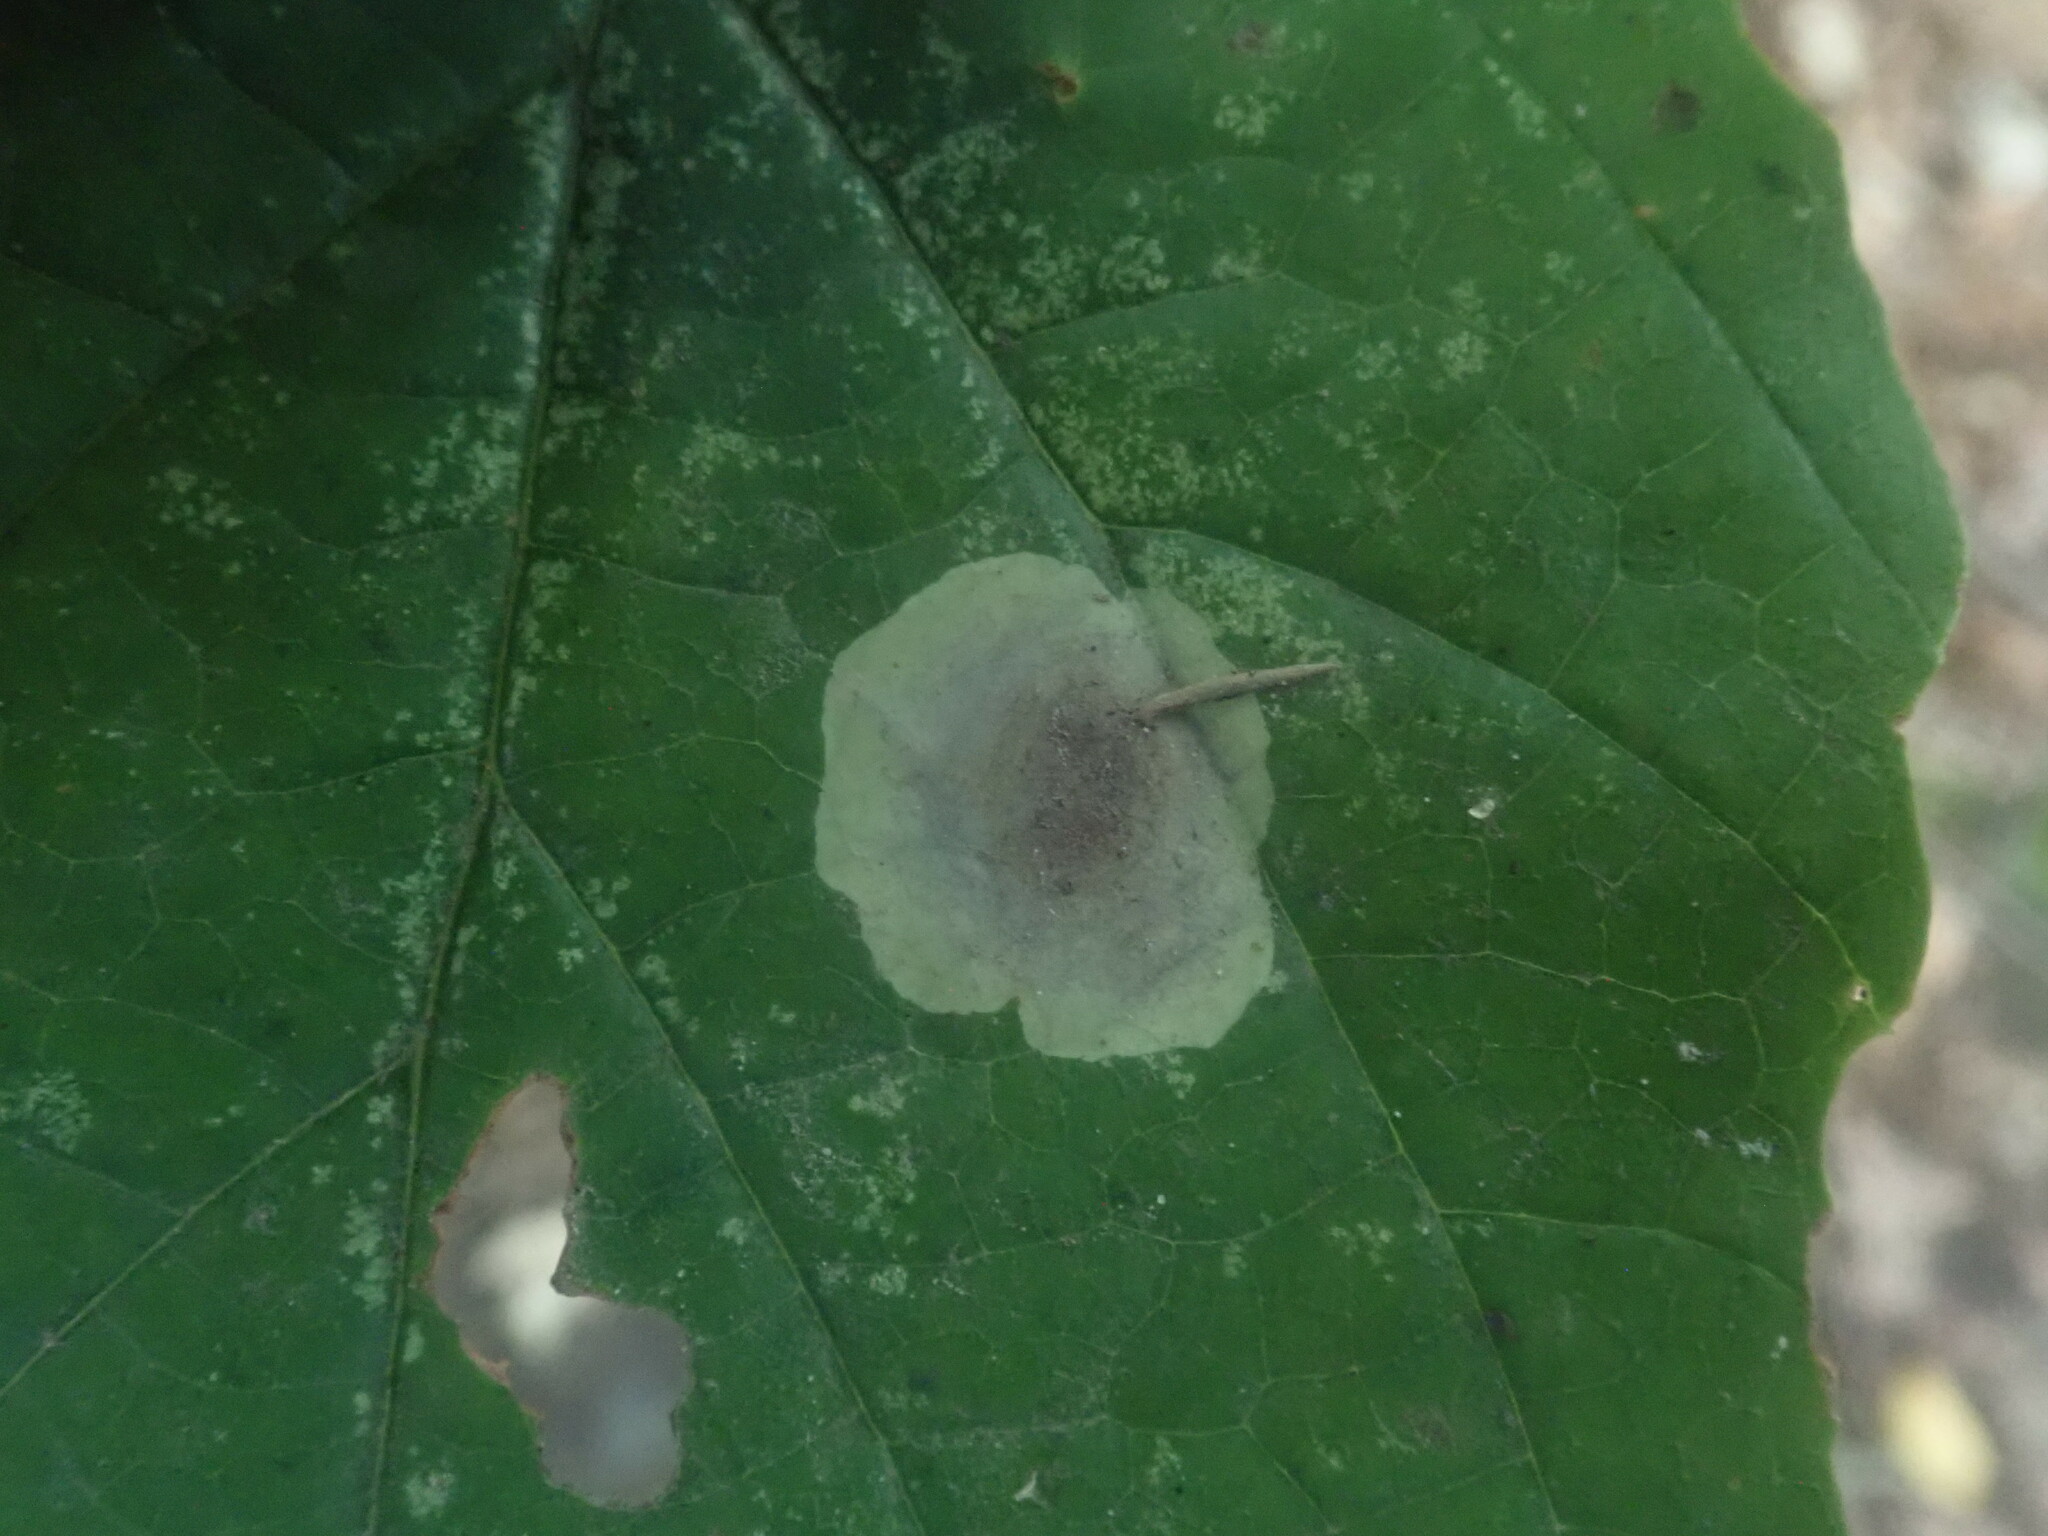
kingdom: Animalia
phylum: Arthropoda
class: Insecta
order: Lepidoptera
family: Gracillariidae
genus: Cameraria
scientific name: Cameraria hamameliella
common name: Witchhazel leafminer
